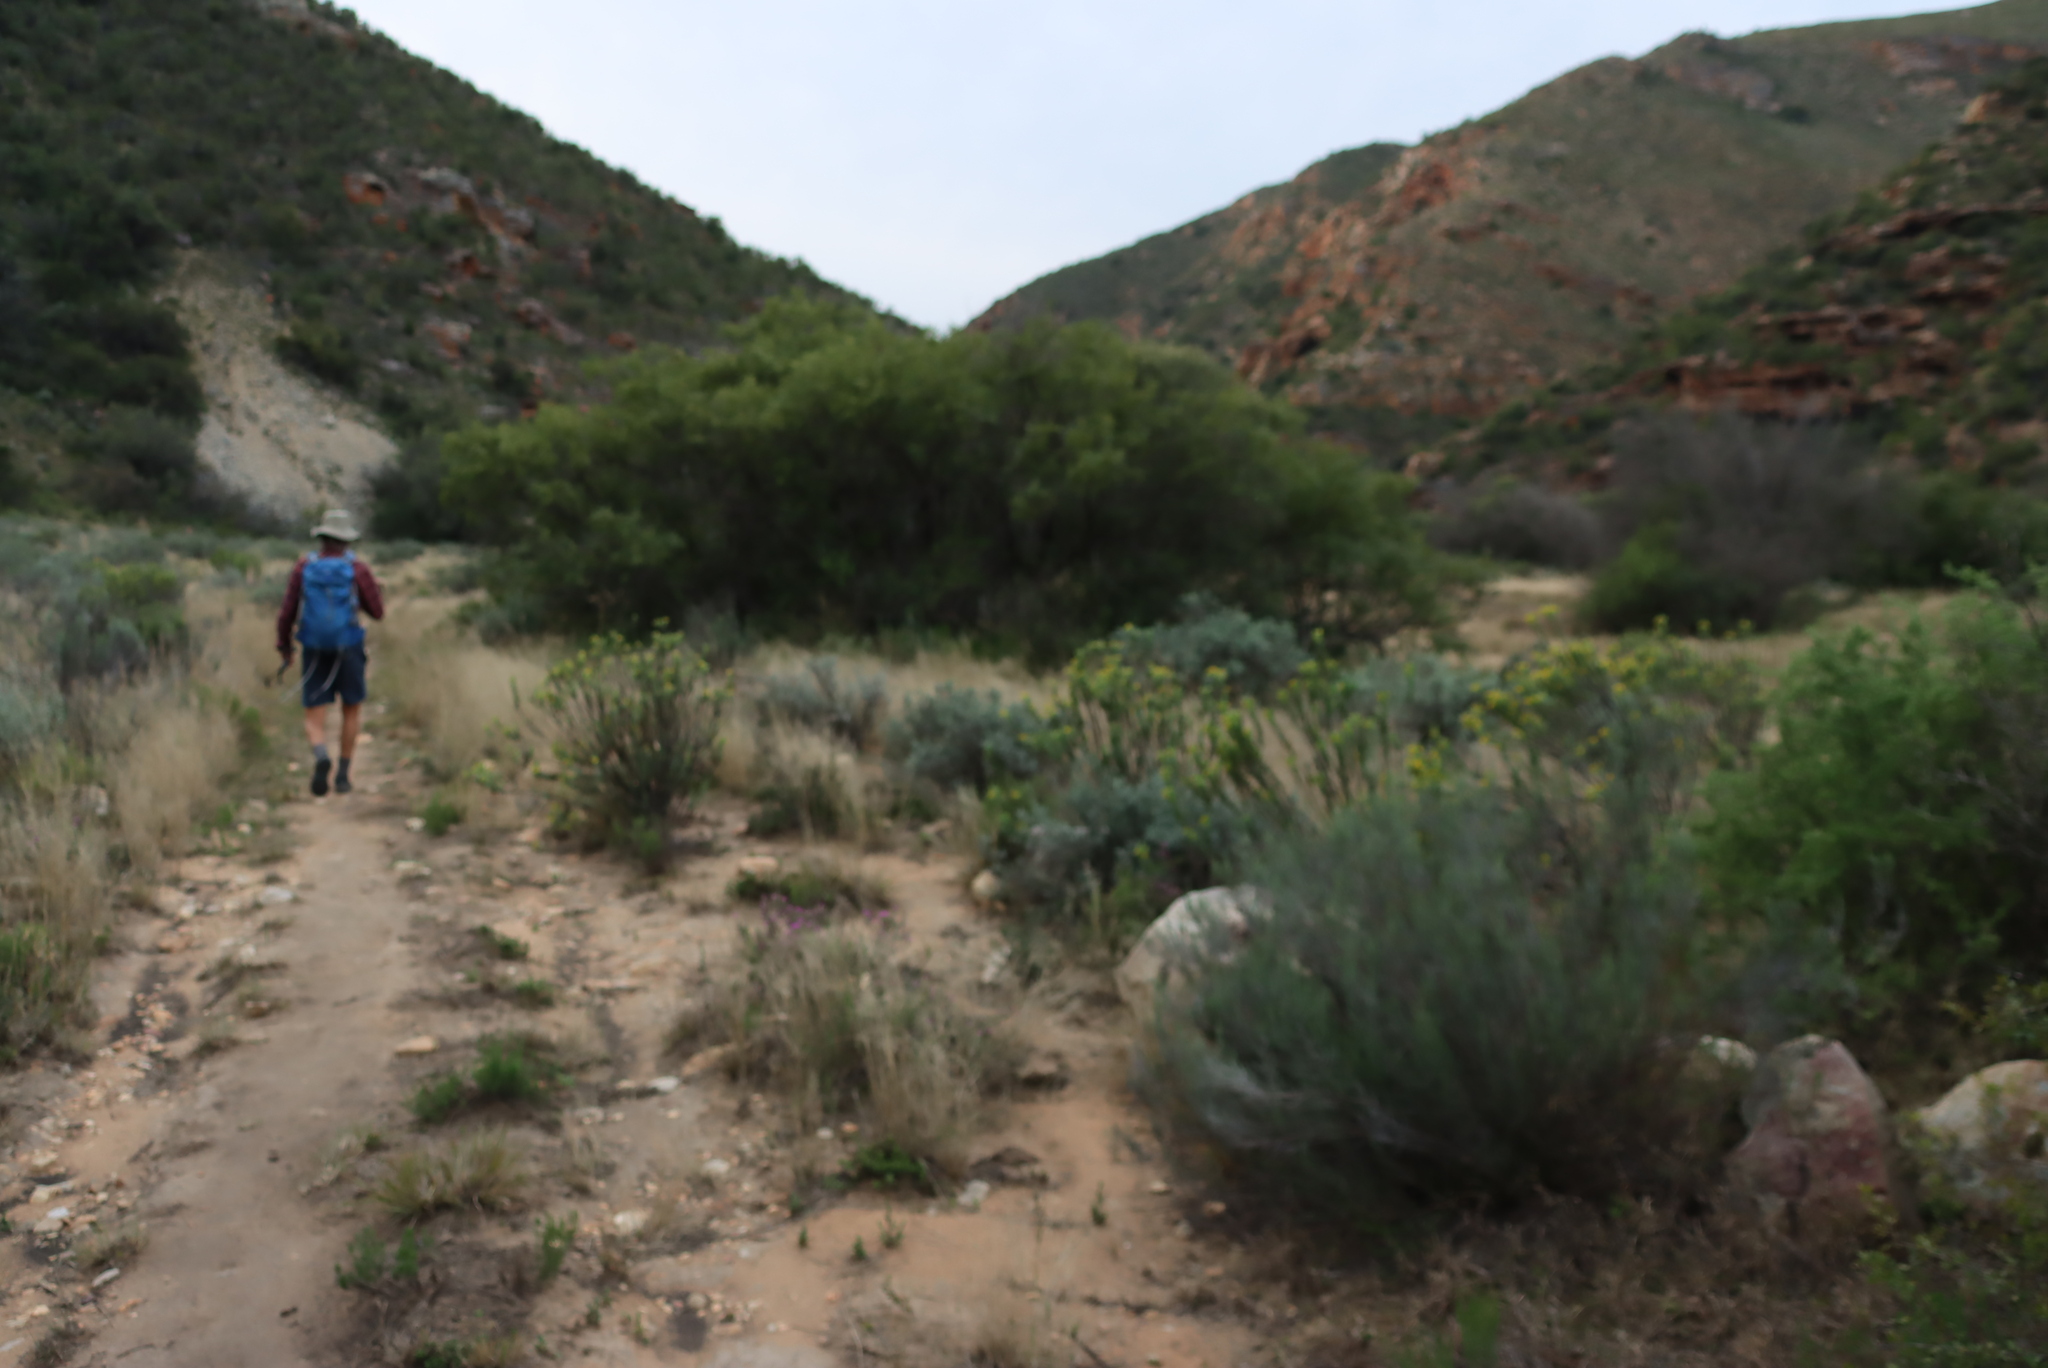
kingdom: Plantae
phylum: Tracheophyta
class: Magnoliopsida
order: Asterales
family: Asteraceae
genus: Dicerothamnus
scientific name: Dicerothamnus rhinocerotis
